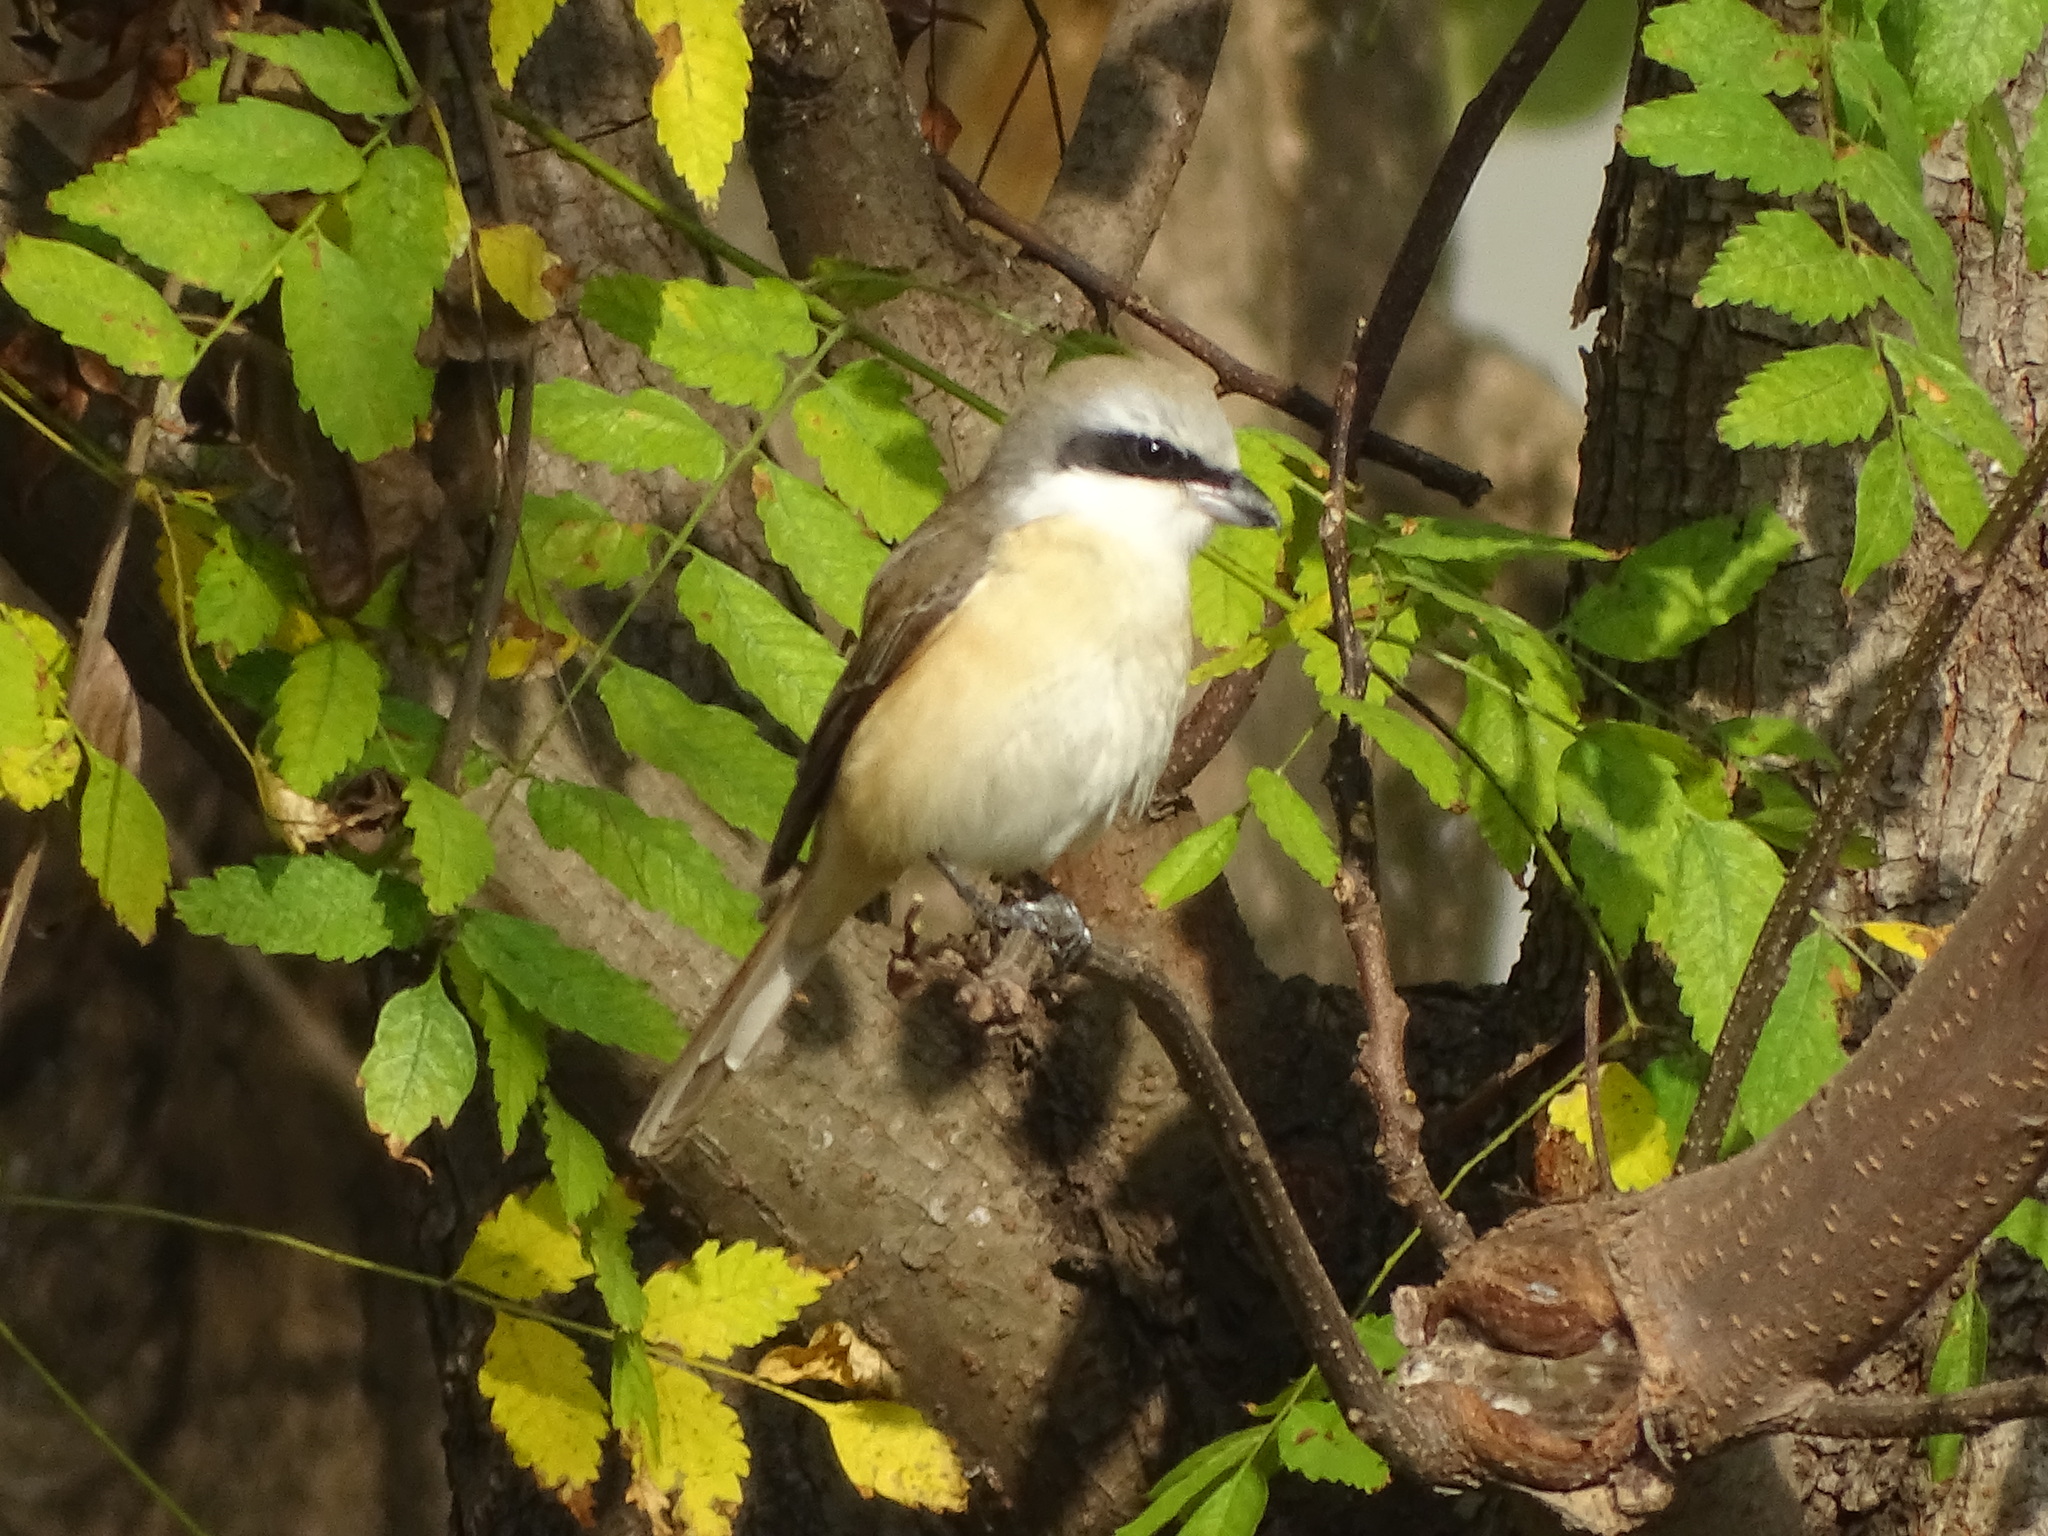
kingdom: Animalia
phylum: Chordata
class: Aves
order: Passeriformes
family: Laniidae
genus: Lanius
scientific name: Lanius cristatus
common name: Brown shrike
